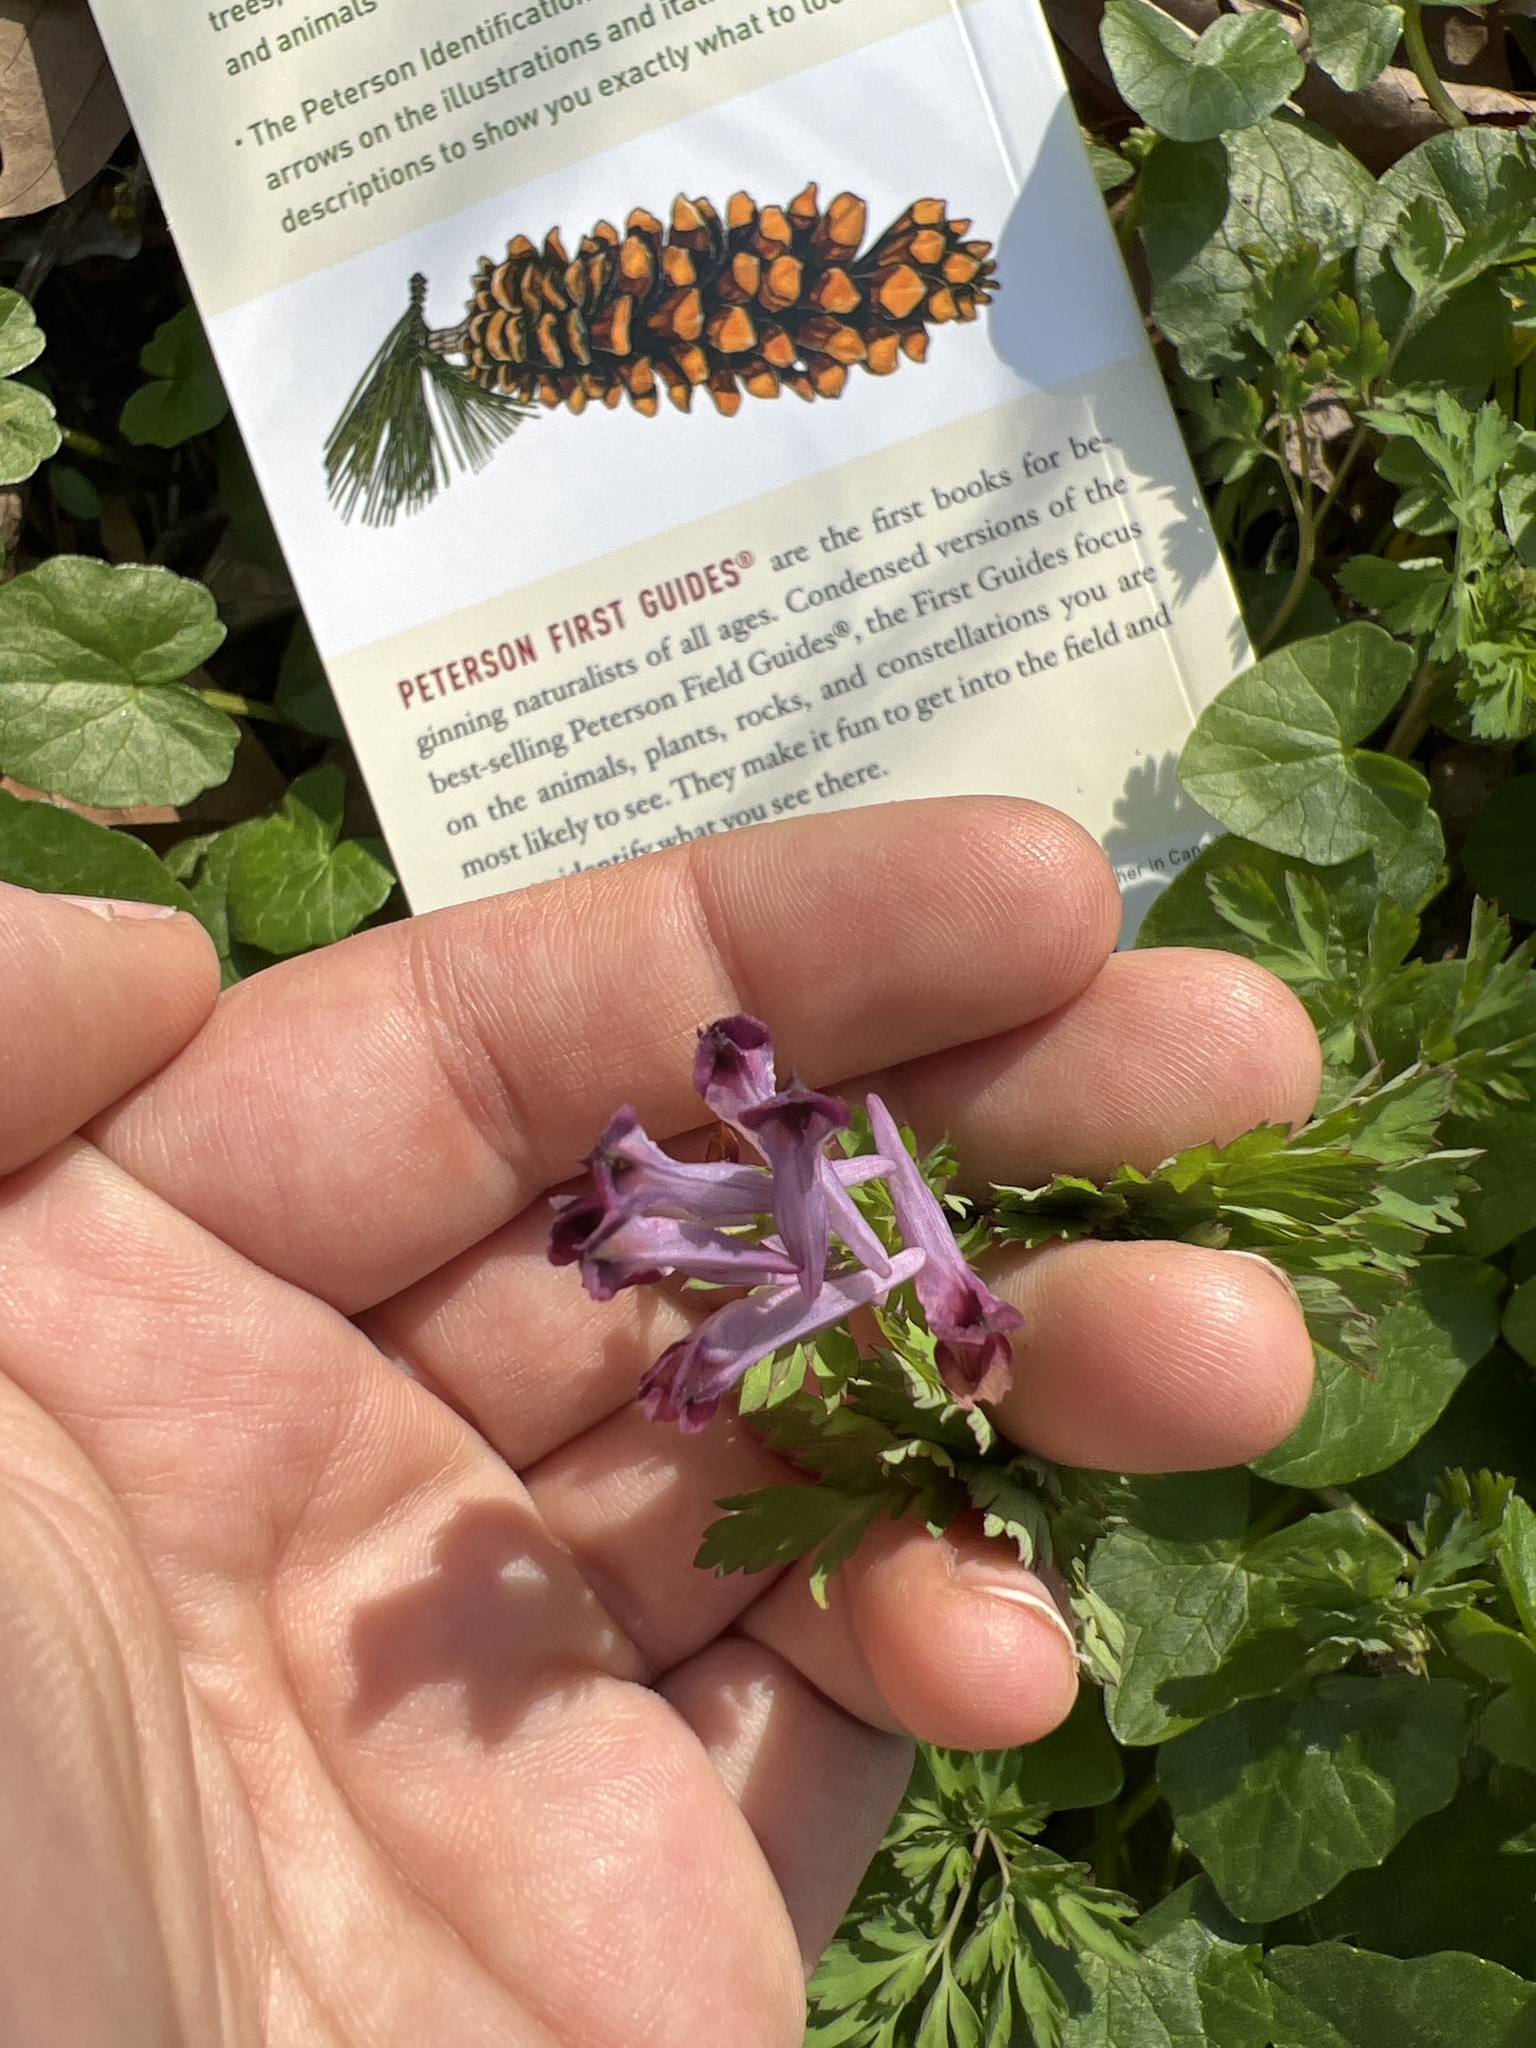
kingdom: Plantae
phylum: Tracheophyta
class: Magnoliopsida
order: Ranunculales
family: Papaveraceae
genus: Corydalis
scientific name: Corydalis incisa
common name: Incised fumewort
